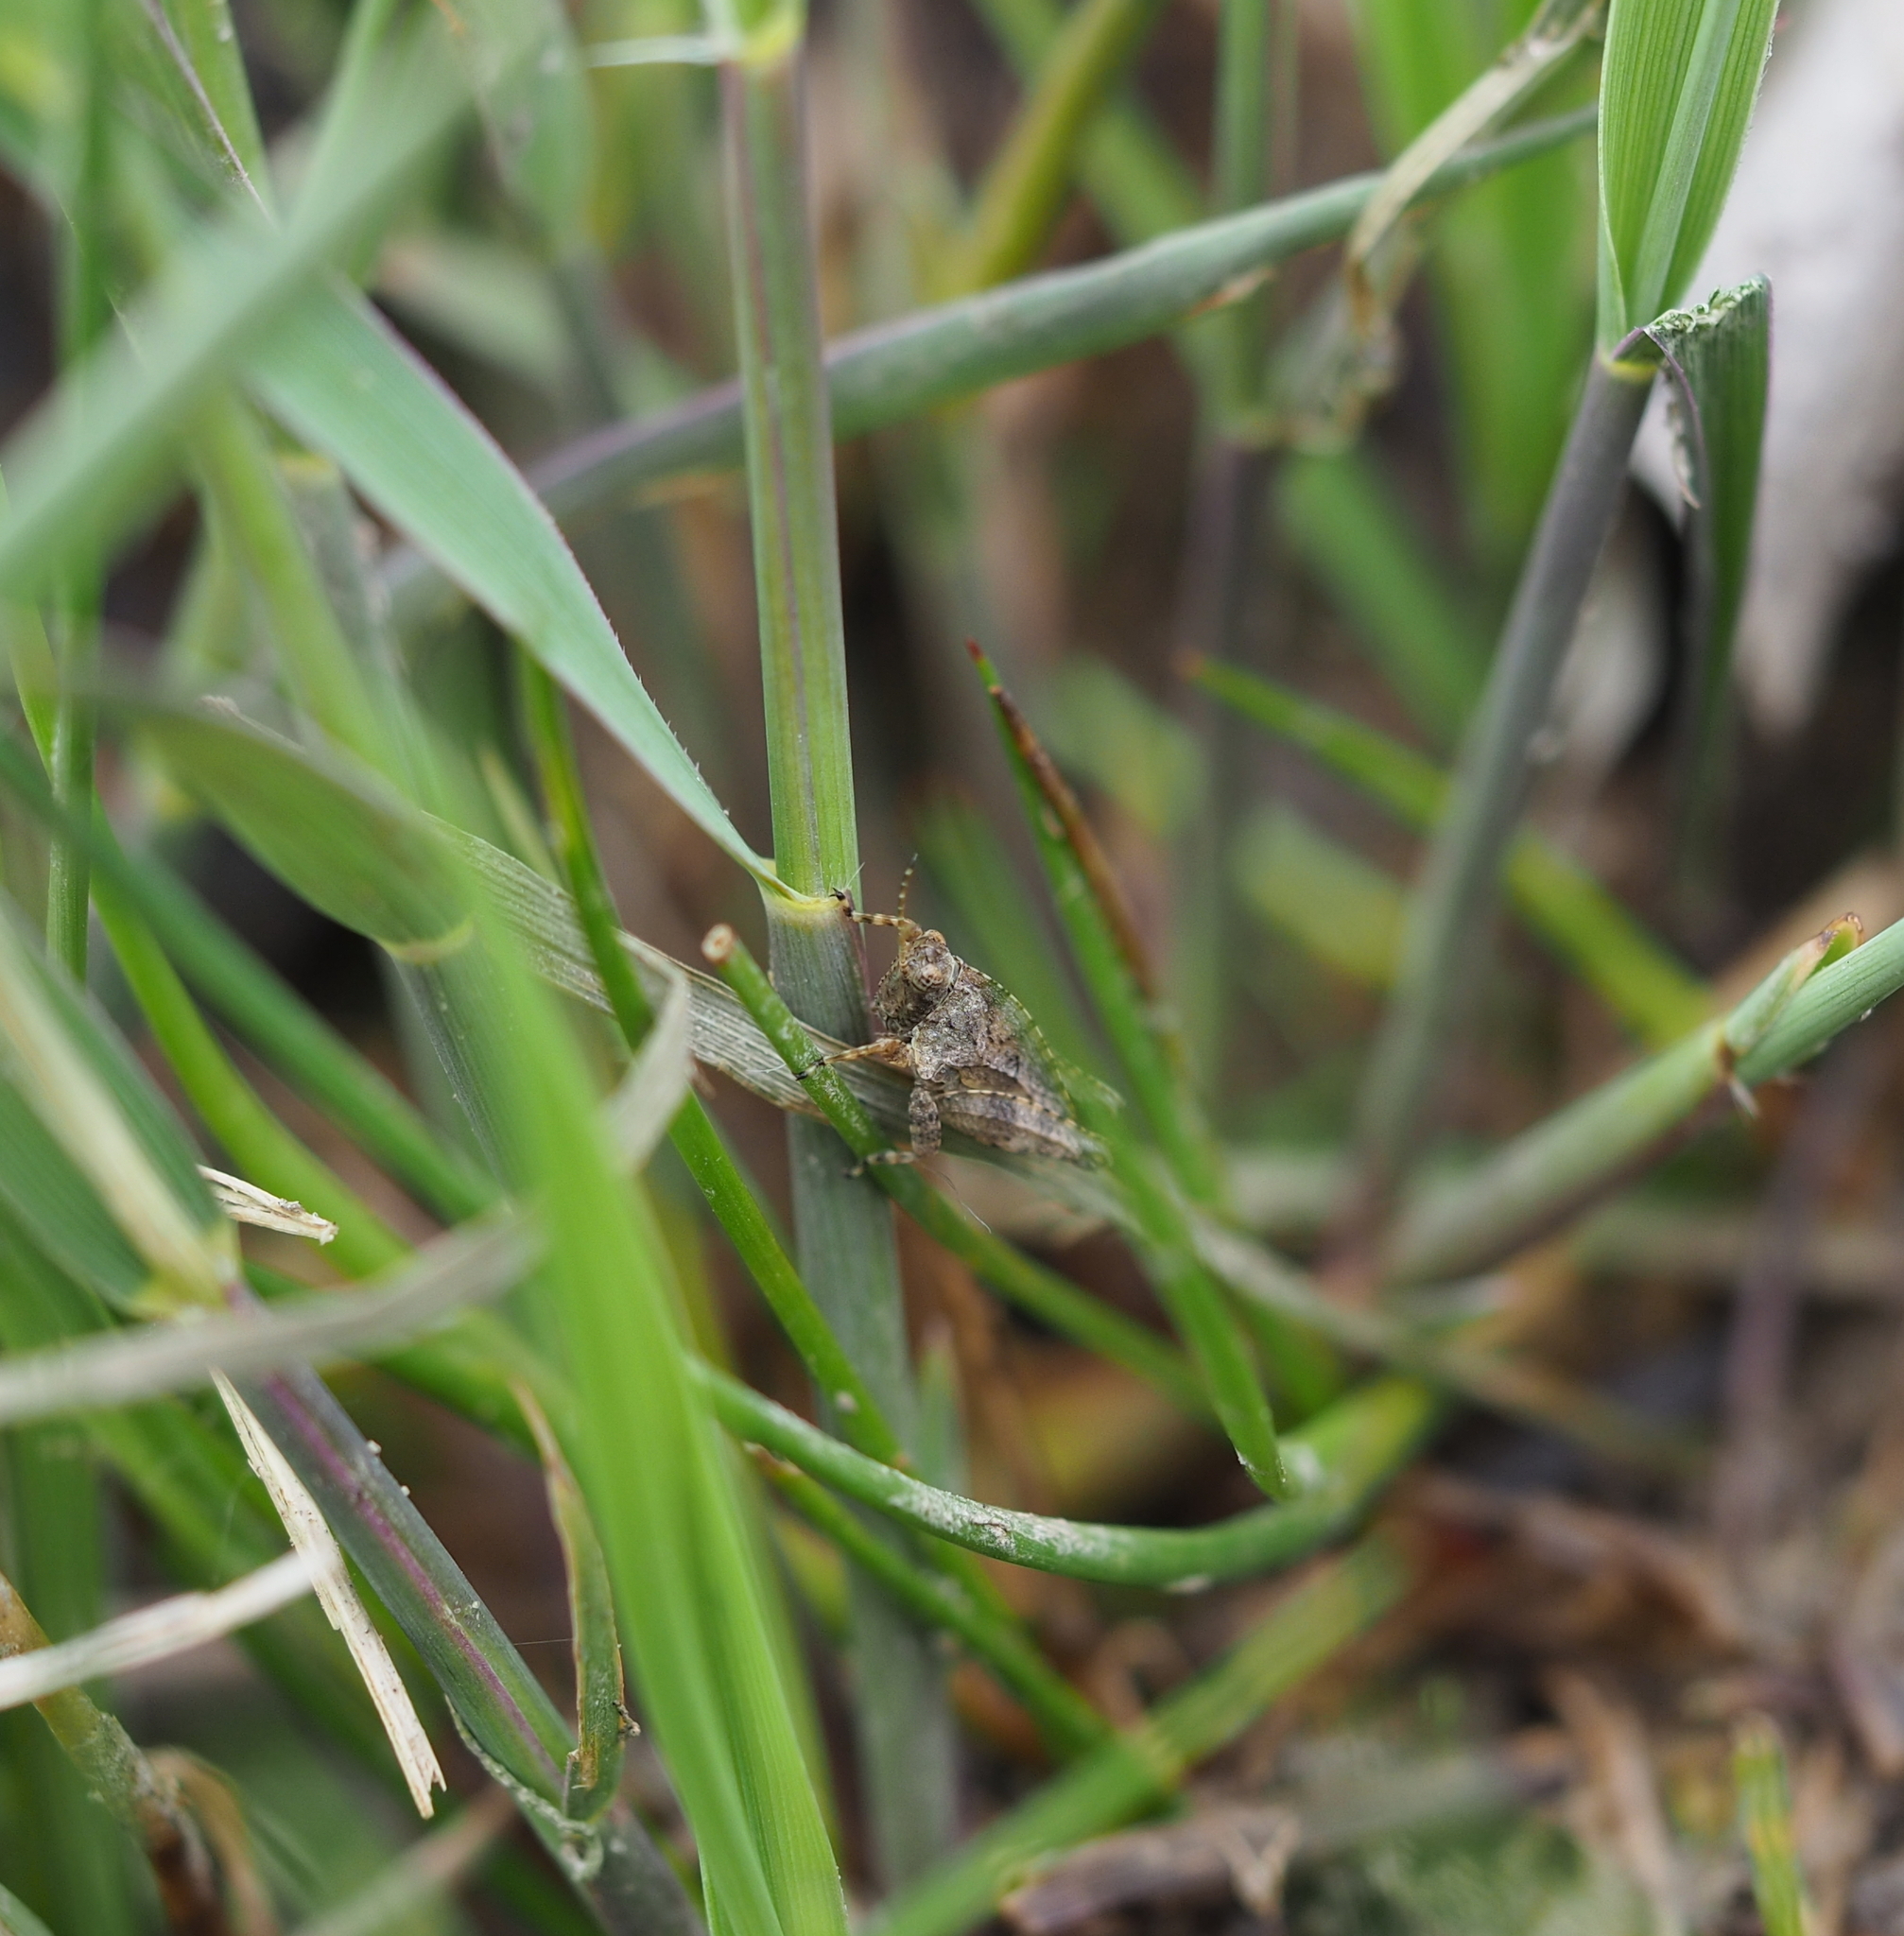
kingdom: Animalia
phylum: Arthropoda
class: Insecta
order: Orthoptera
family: Tetrigidae
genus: Tetrix
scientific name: Tetrix tenuicornis
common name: Long-horned groundhopper
